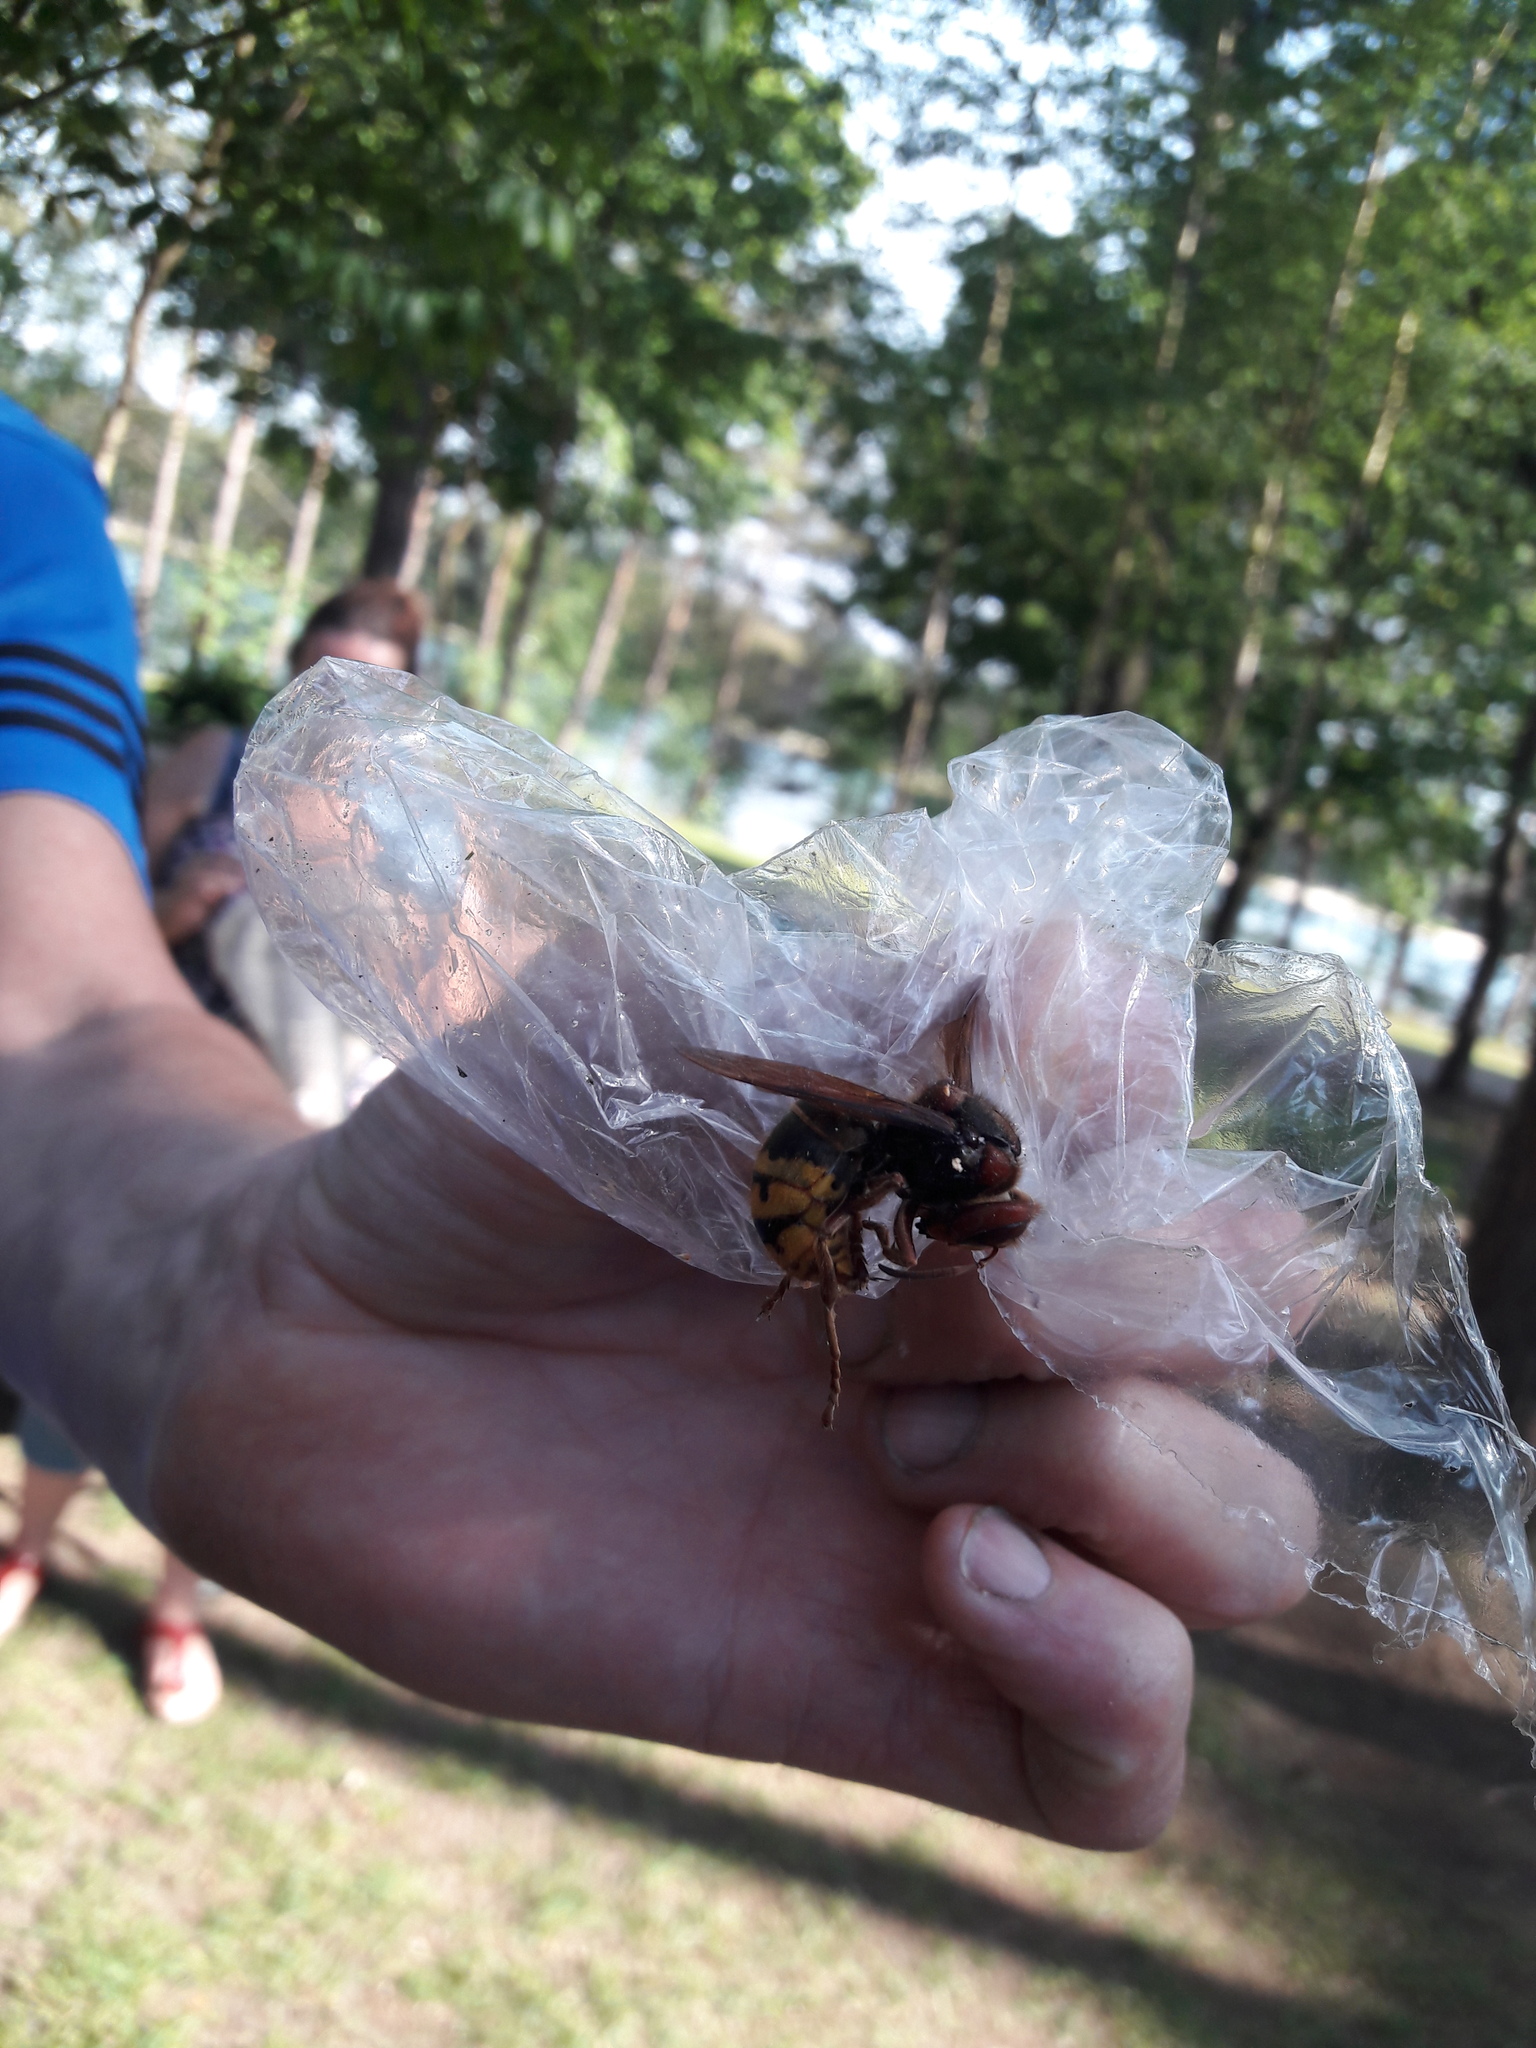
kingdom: Animalia
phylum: Arthropoda
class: Insecta
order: Hymenoptera
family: Vespidae
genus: Vespa
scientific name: Vespa crabro
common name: Hornet
